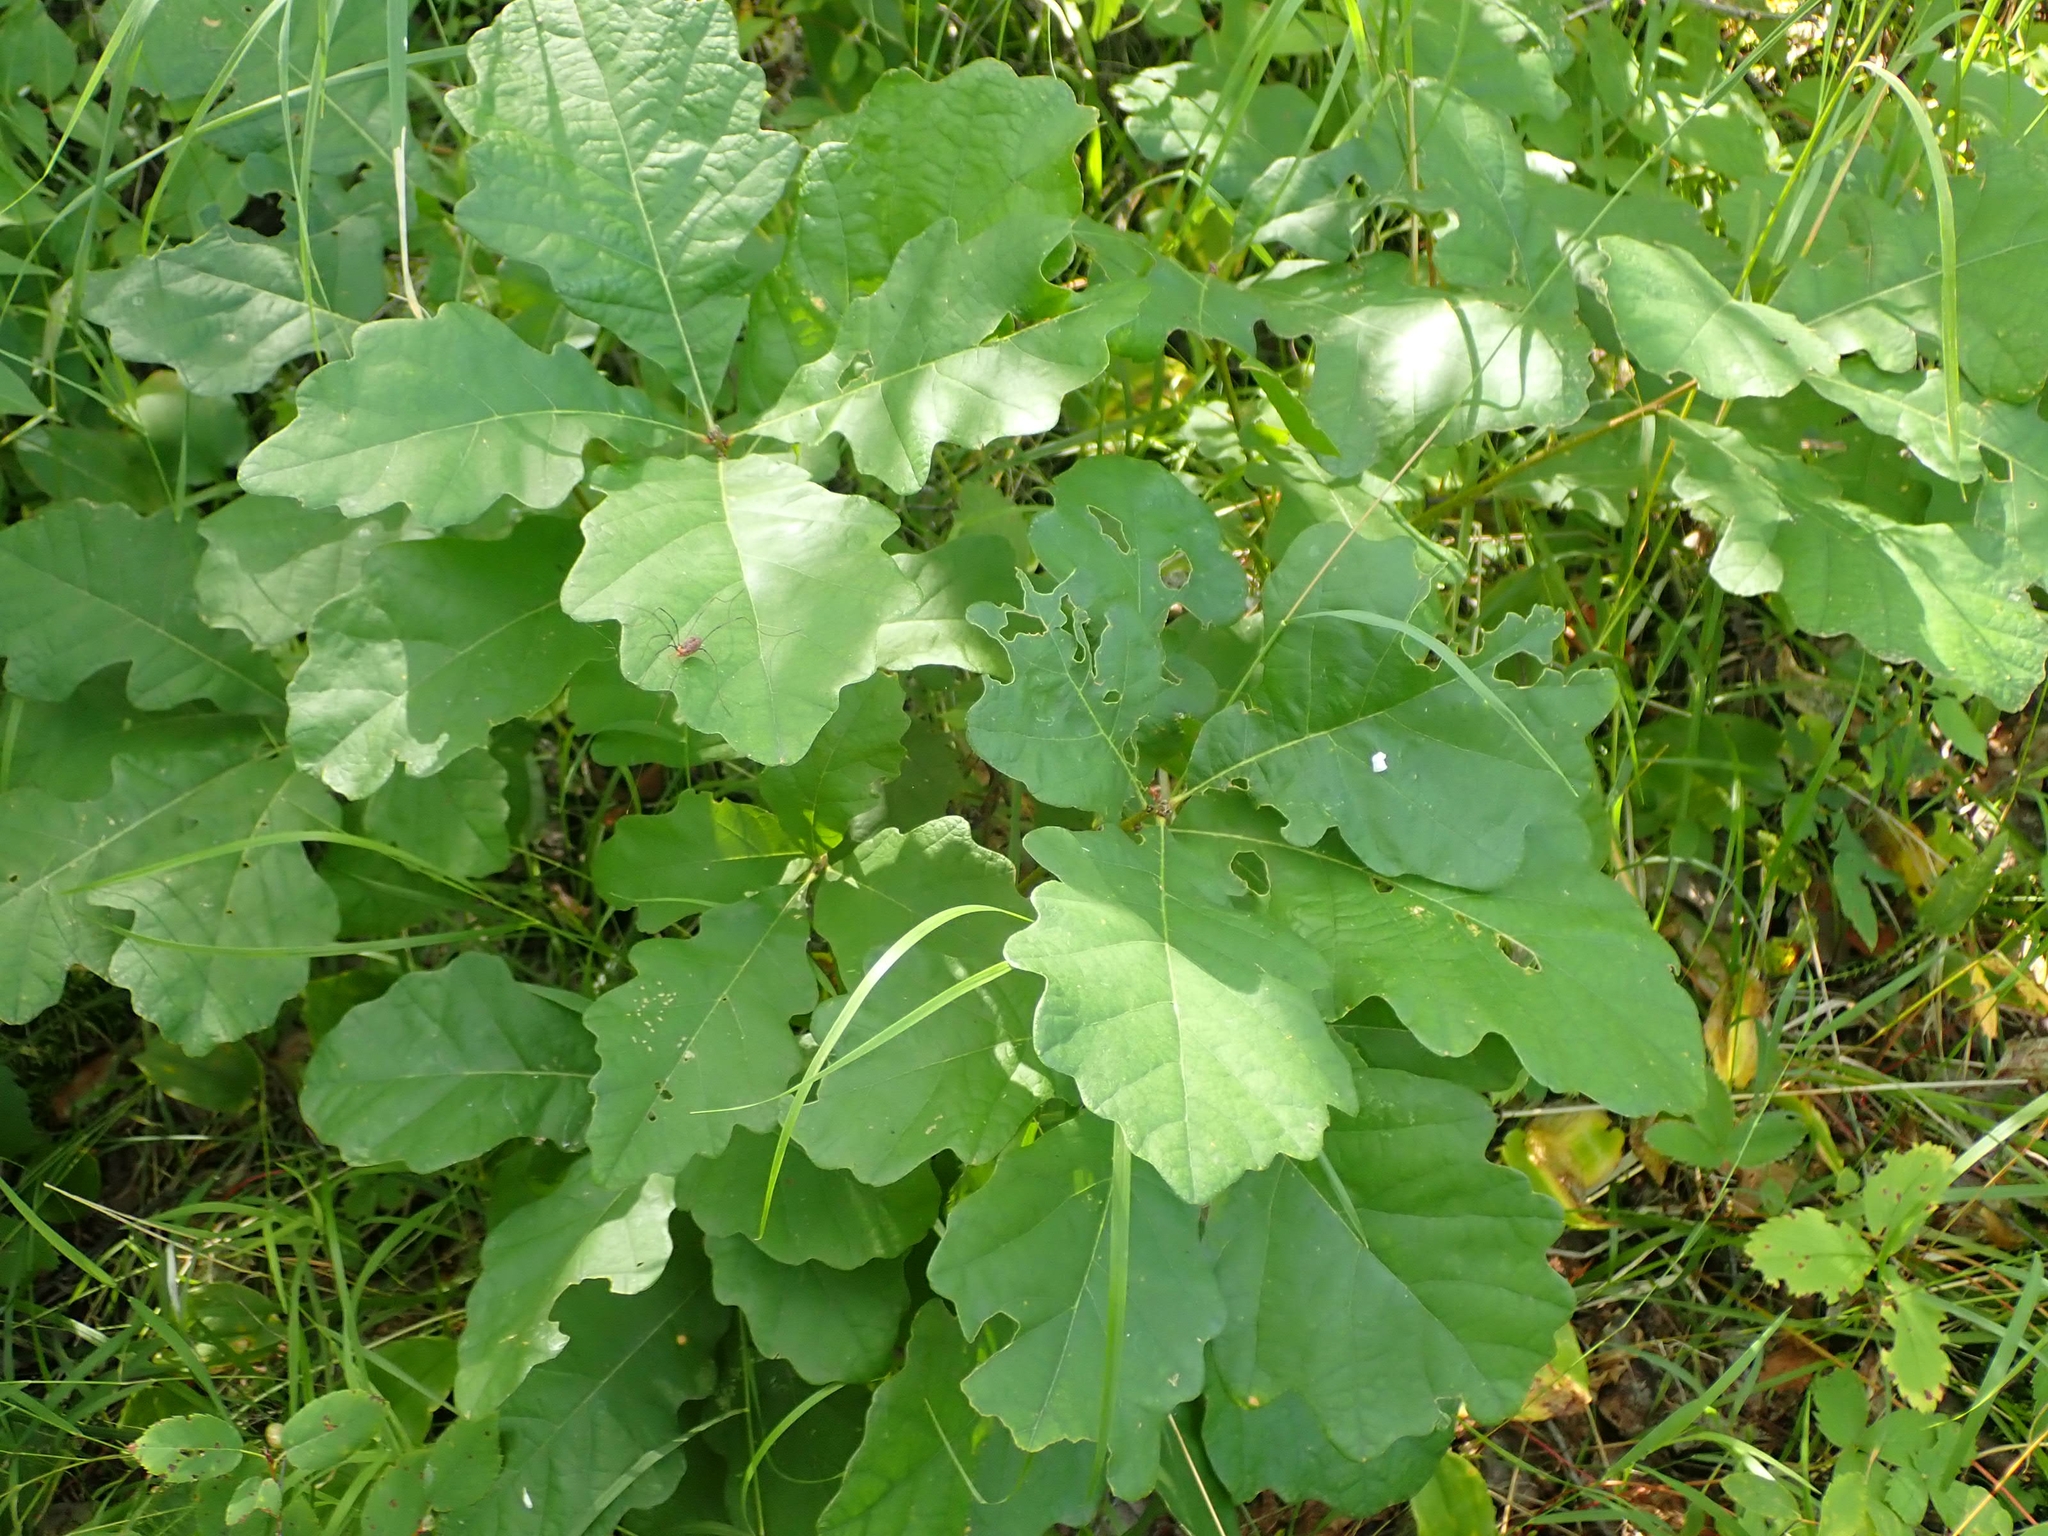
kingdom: Plantae
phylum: Tracheophyta
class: Magnoliopsida
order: Fagales
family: Fagaceae
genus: Quercus
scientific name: Quercus macrocarpa
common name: Bur oak
